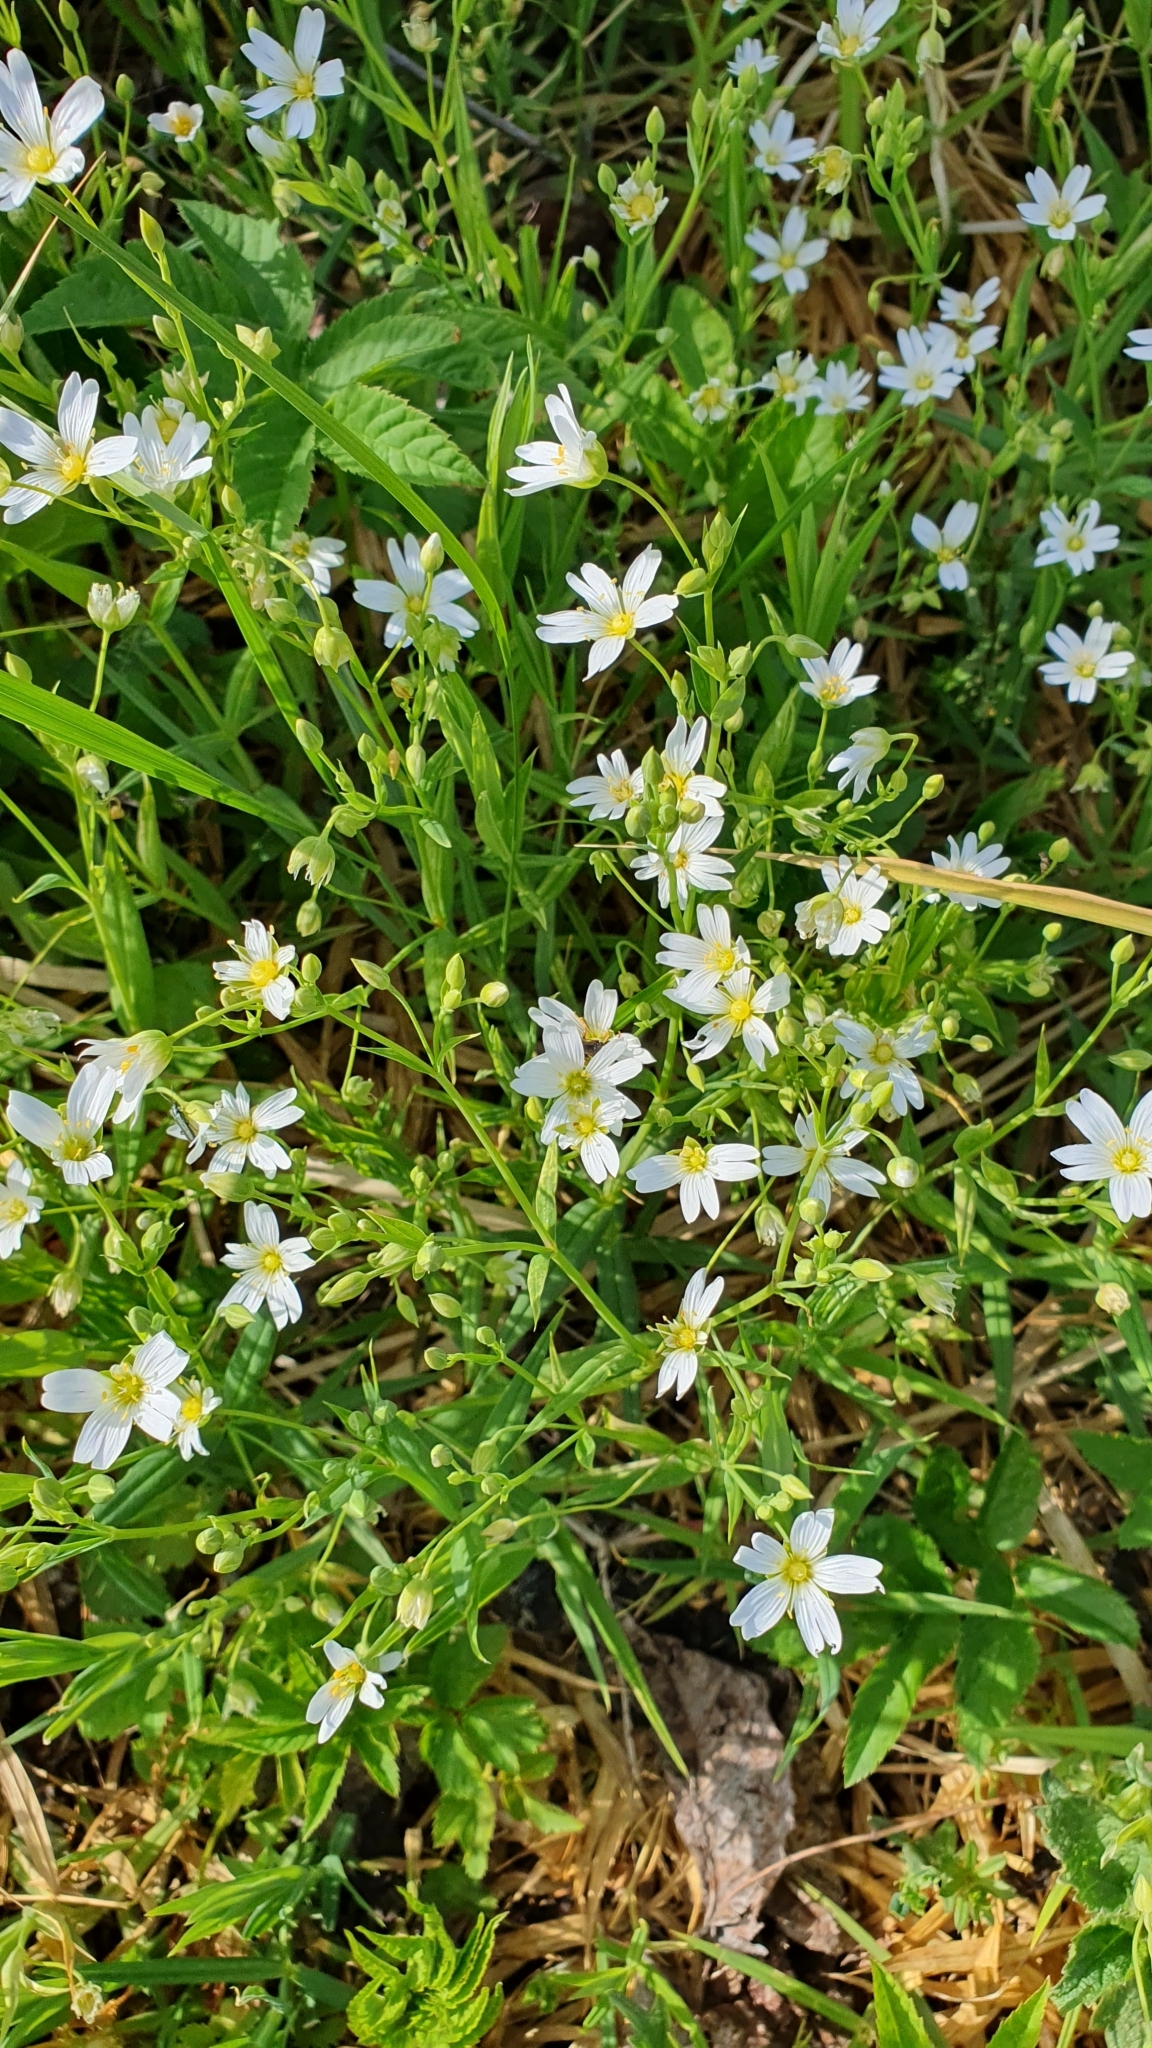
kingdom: Plantae
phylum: Tracheophyta
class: Magnoliopsida
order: Caryophyllales
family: Caryophyllaceae
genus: Rabelera
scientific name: Rabelera holostea
